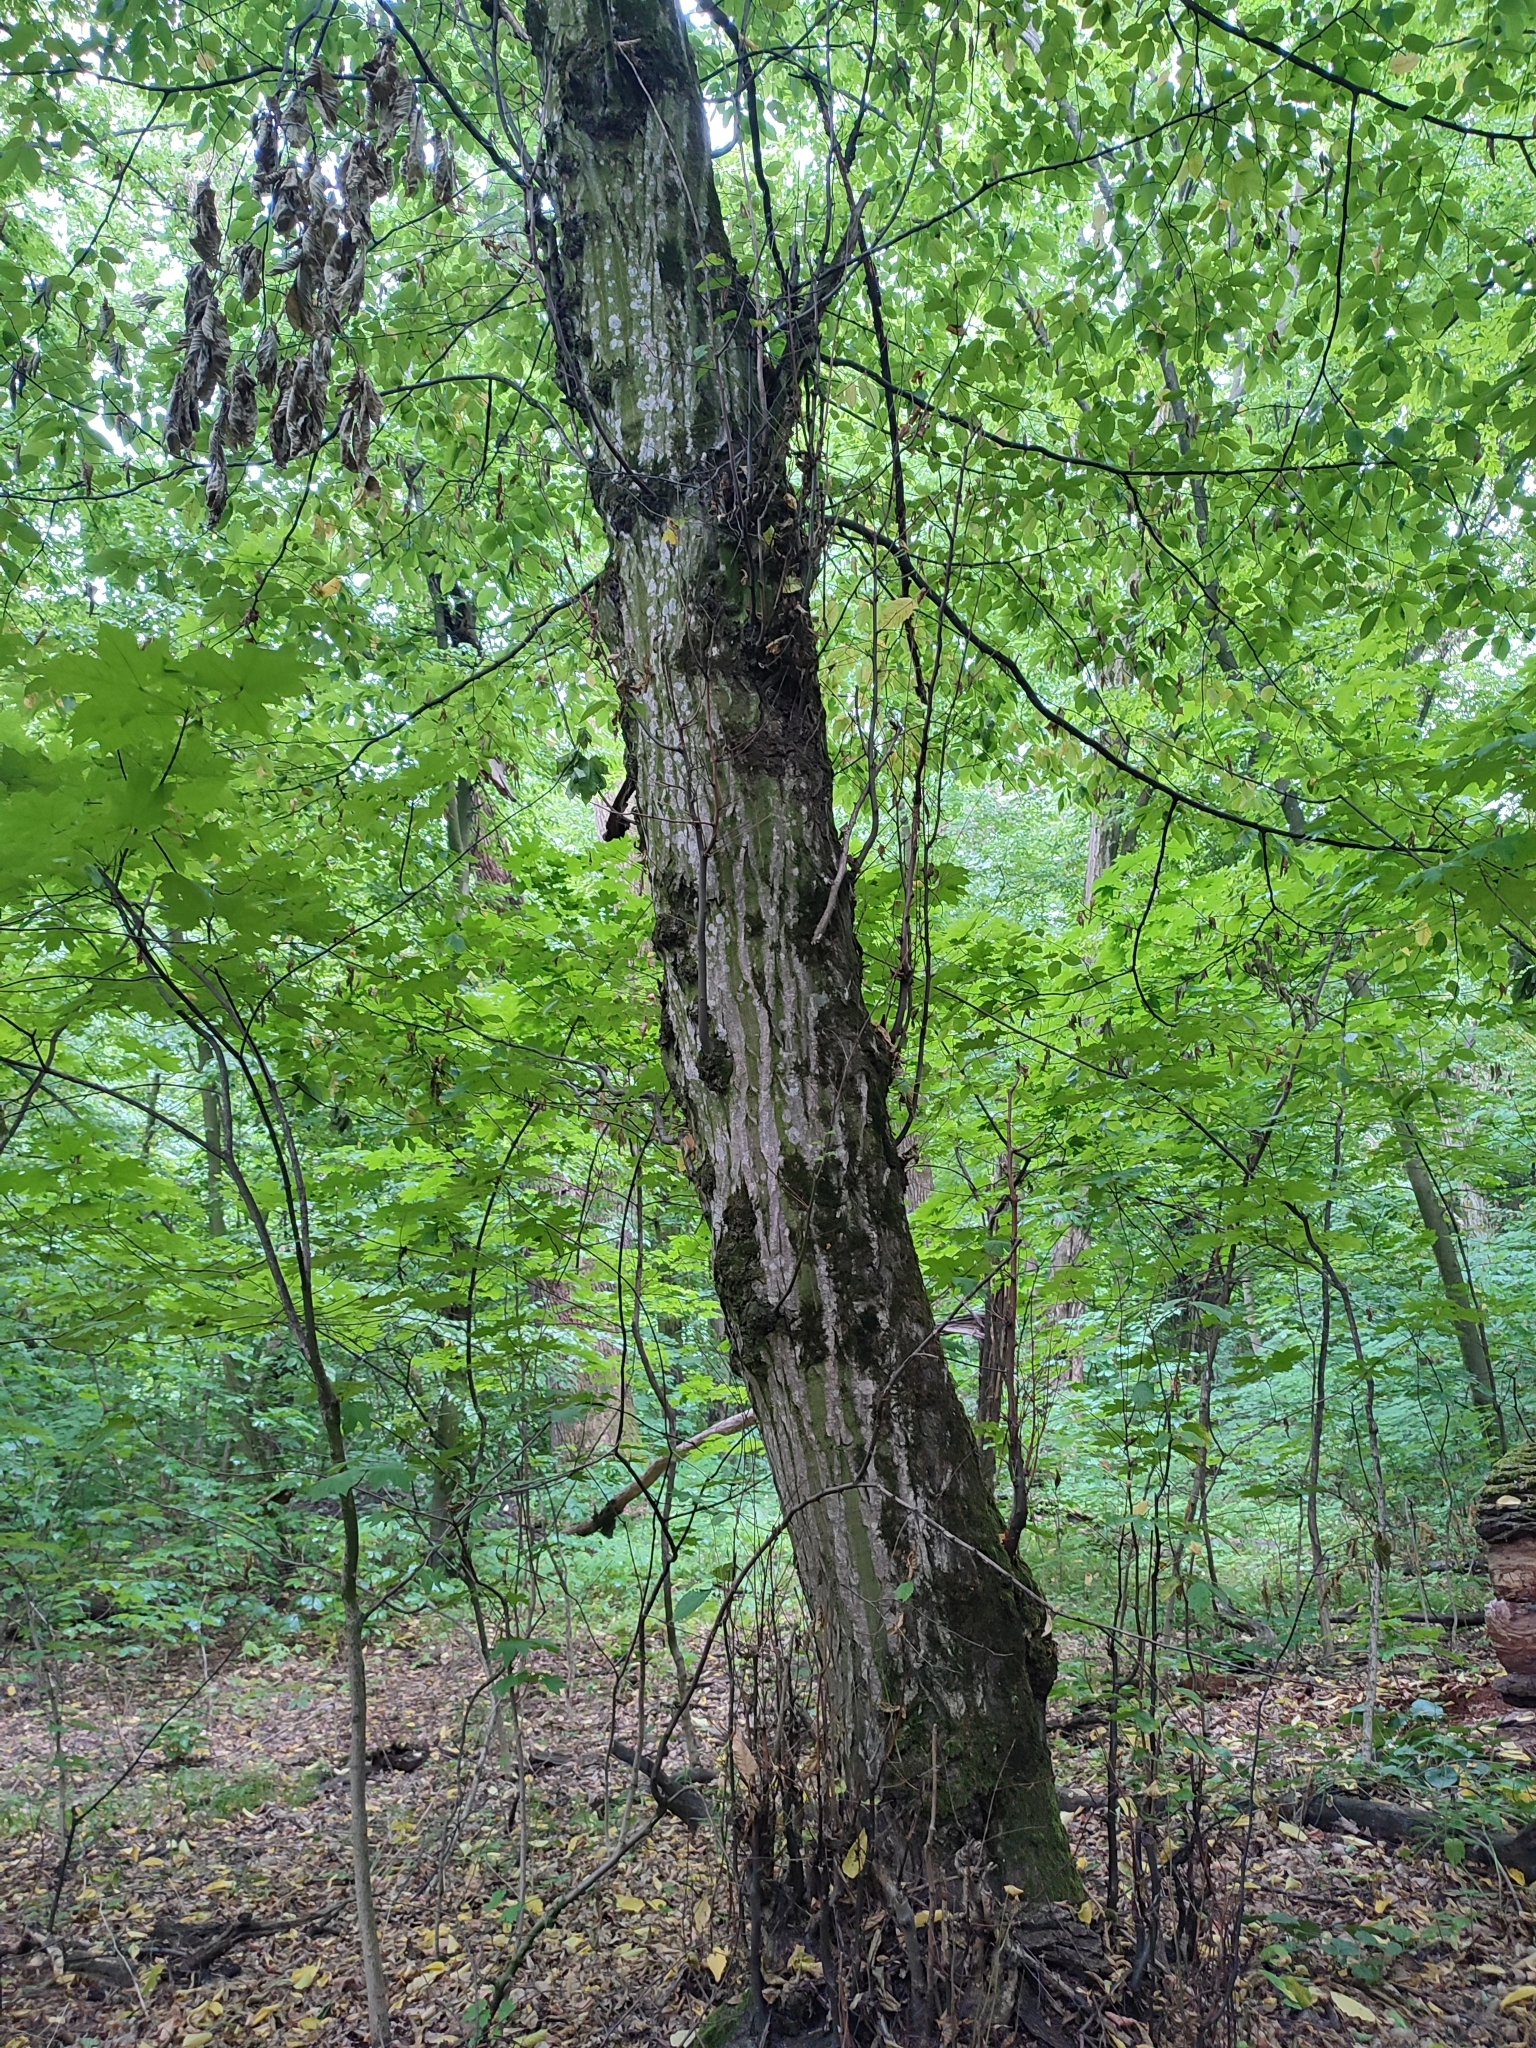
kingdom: Plantae
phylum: Tracheophyta
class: Magnoliopsida
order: Fagales
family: Betulaceae
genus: Carpinus
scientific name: Carpinus betulus
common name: Hornbeam
